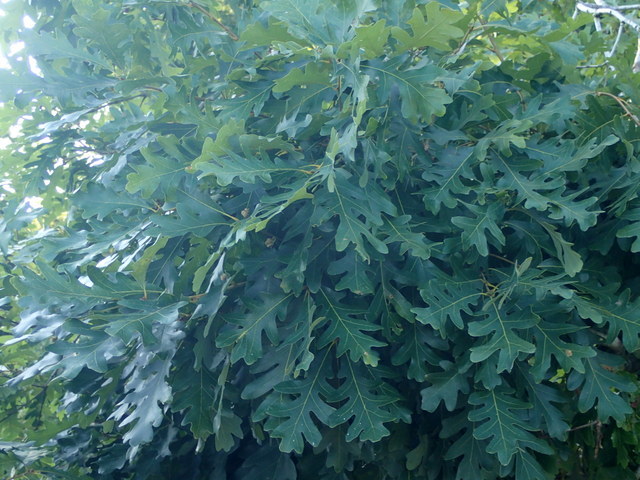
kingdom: Plantae
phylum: Tracheophyta
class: Magnoliopsida
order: Fagales
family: Fagaceae
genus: Quercus
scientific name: Quercus alba
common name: White oak
